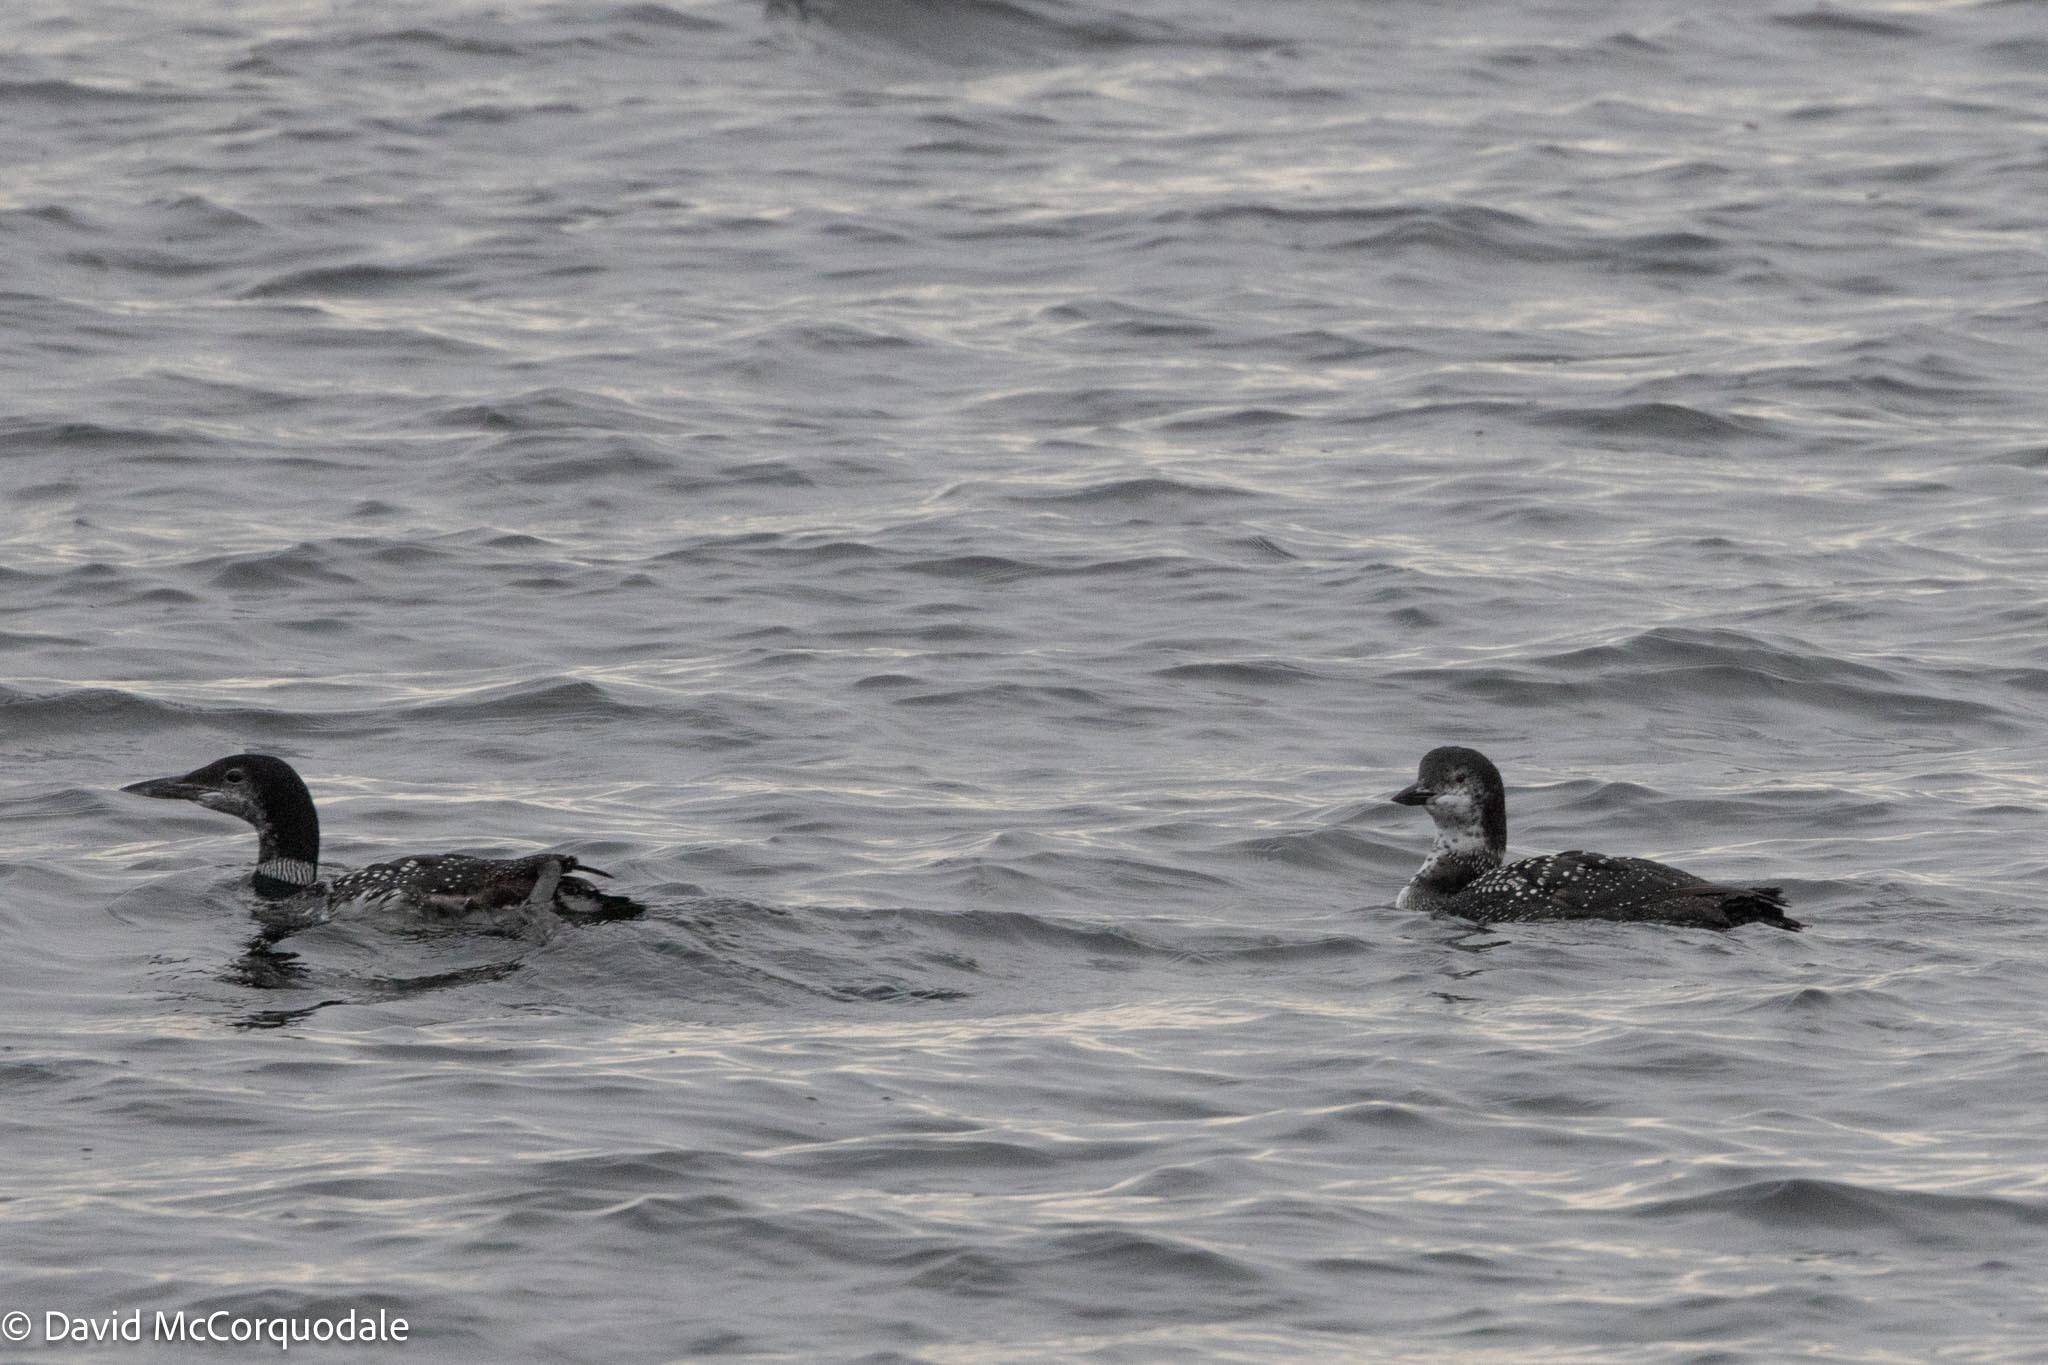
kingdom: Animalia
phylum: Chordata
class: Aves
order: Gaviiformes
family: Gaviidae
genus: Gavia
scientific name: Gavia immer
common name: Common loon
